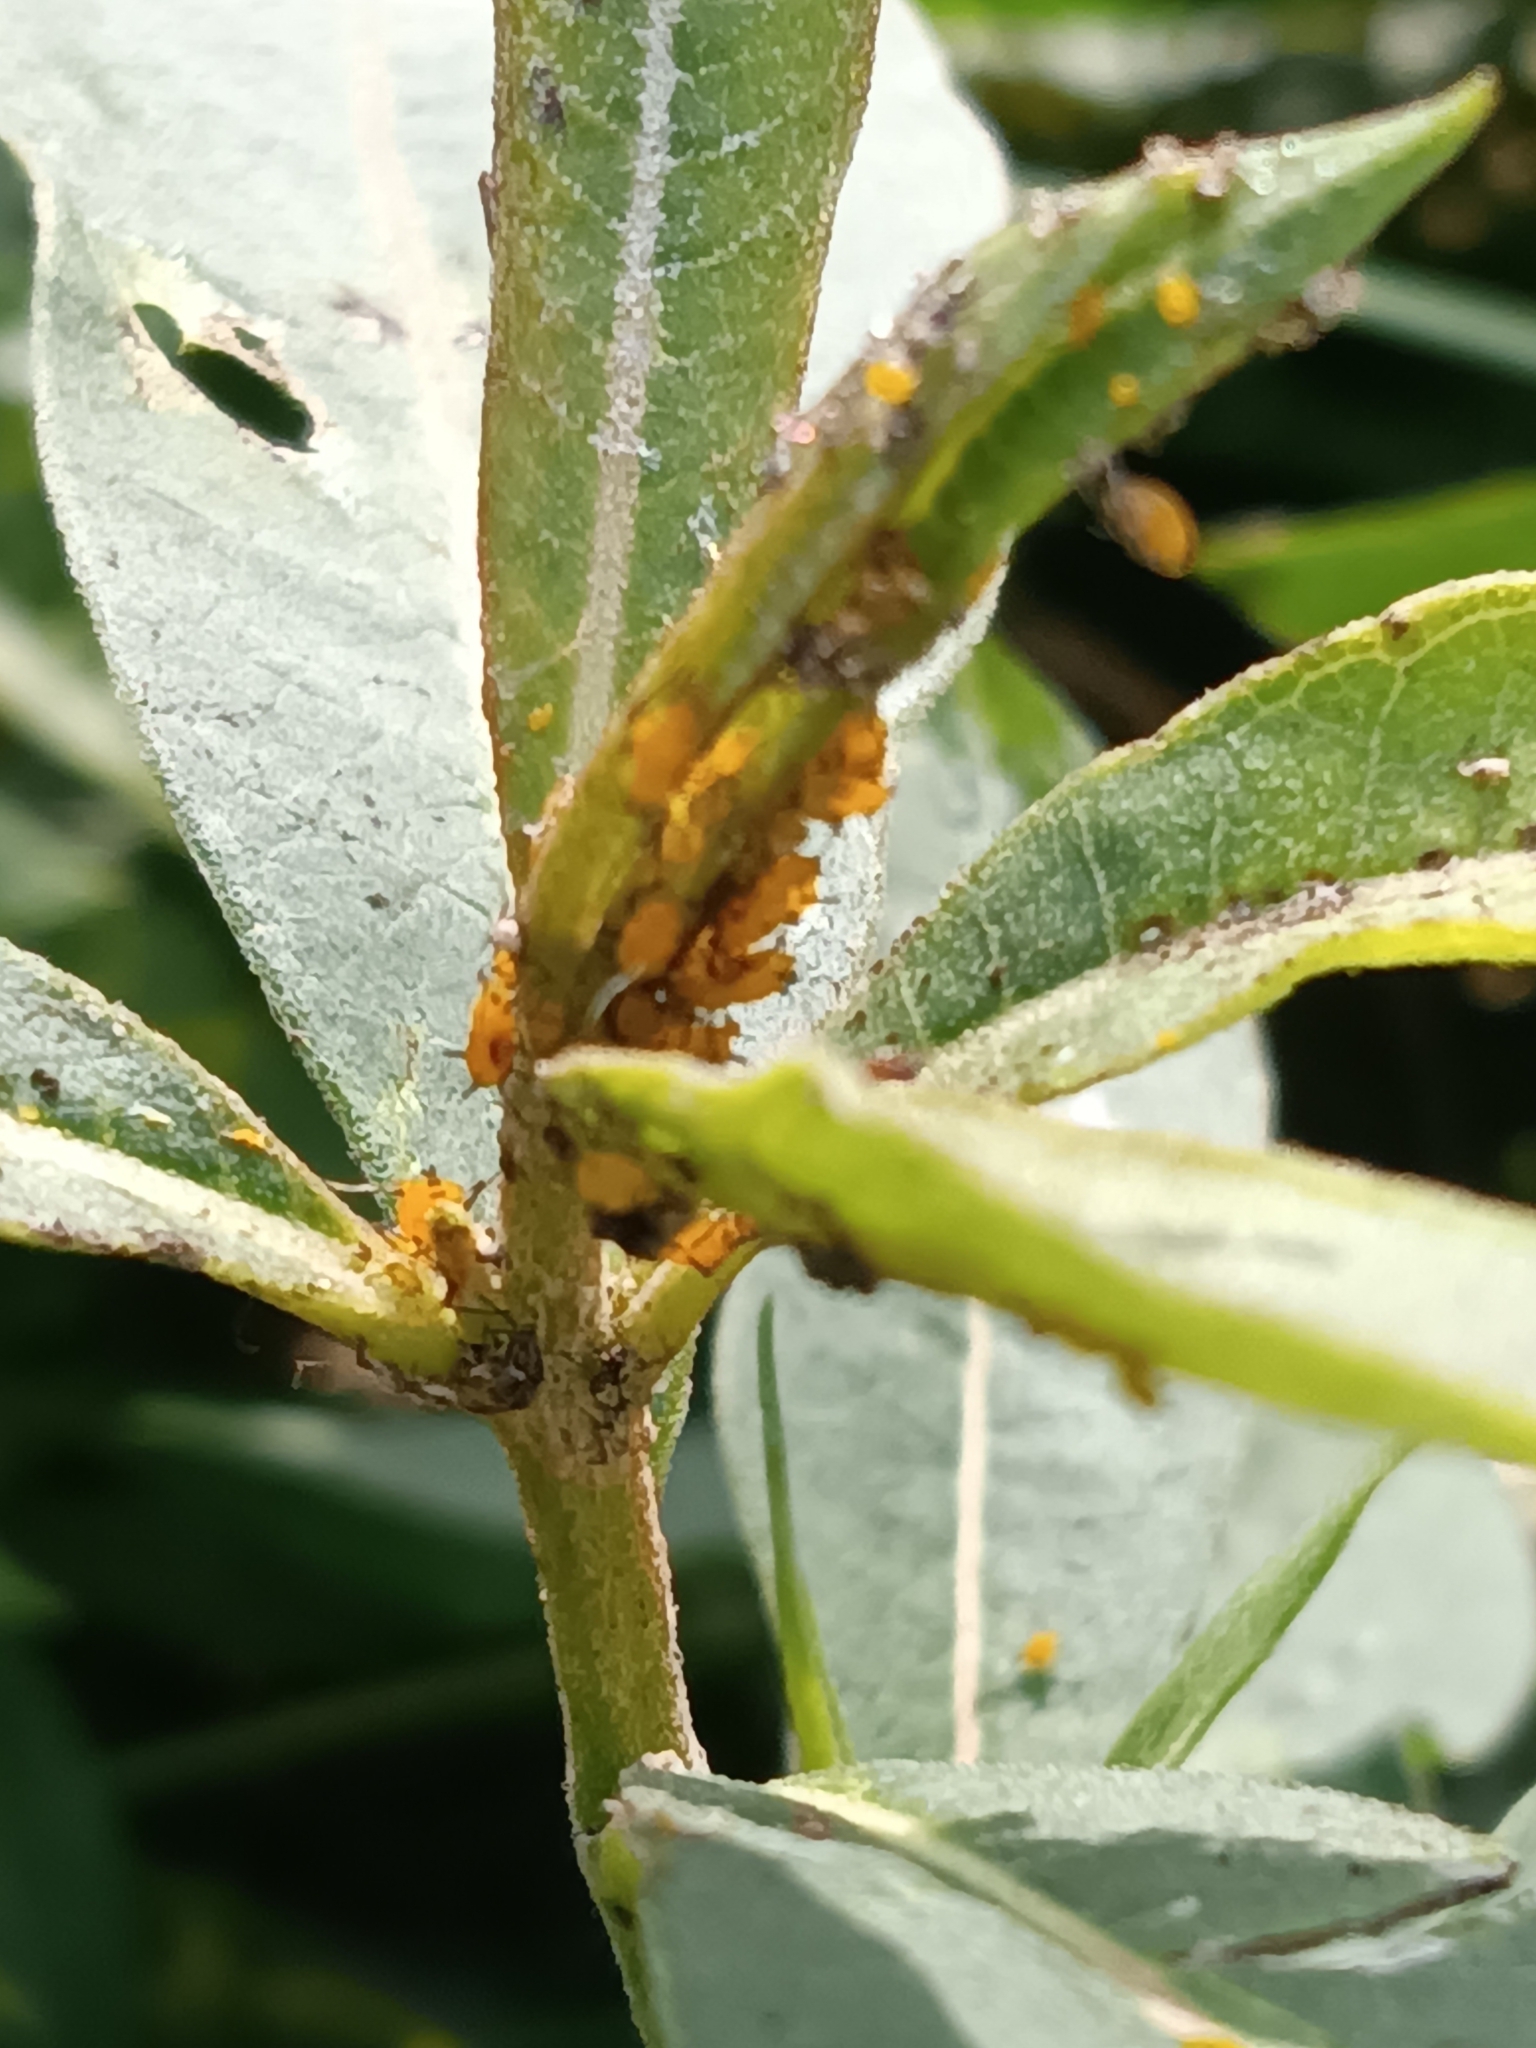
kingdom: Animalia
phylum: Arthropoda
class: Insecta
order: Hemiptera
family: Aphididae
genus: Aphis
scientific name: Aphis nerii
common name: Oleander aphid
